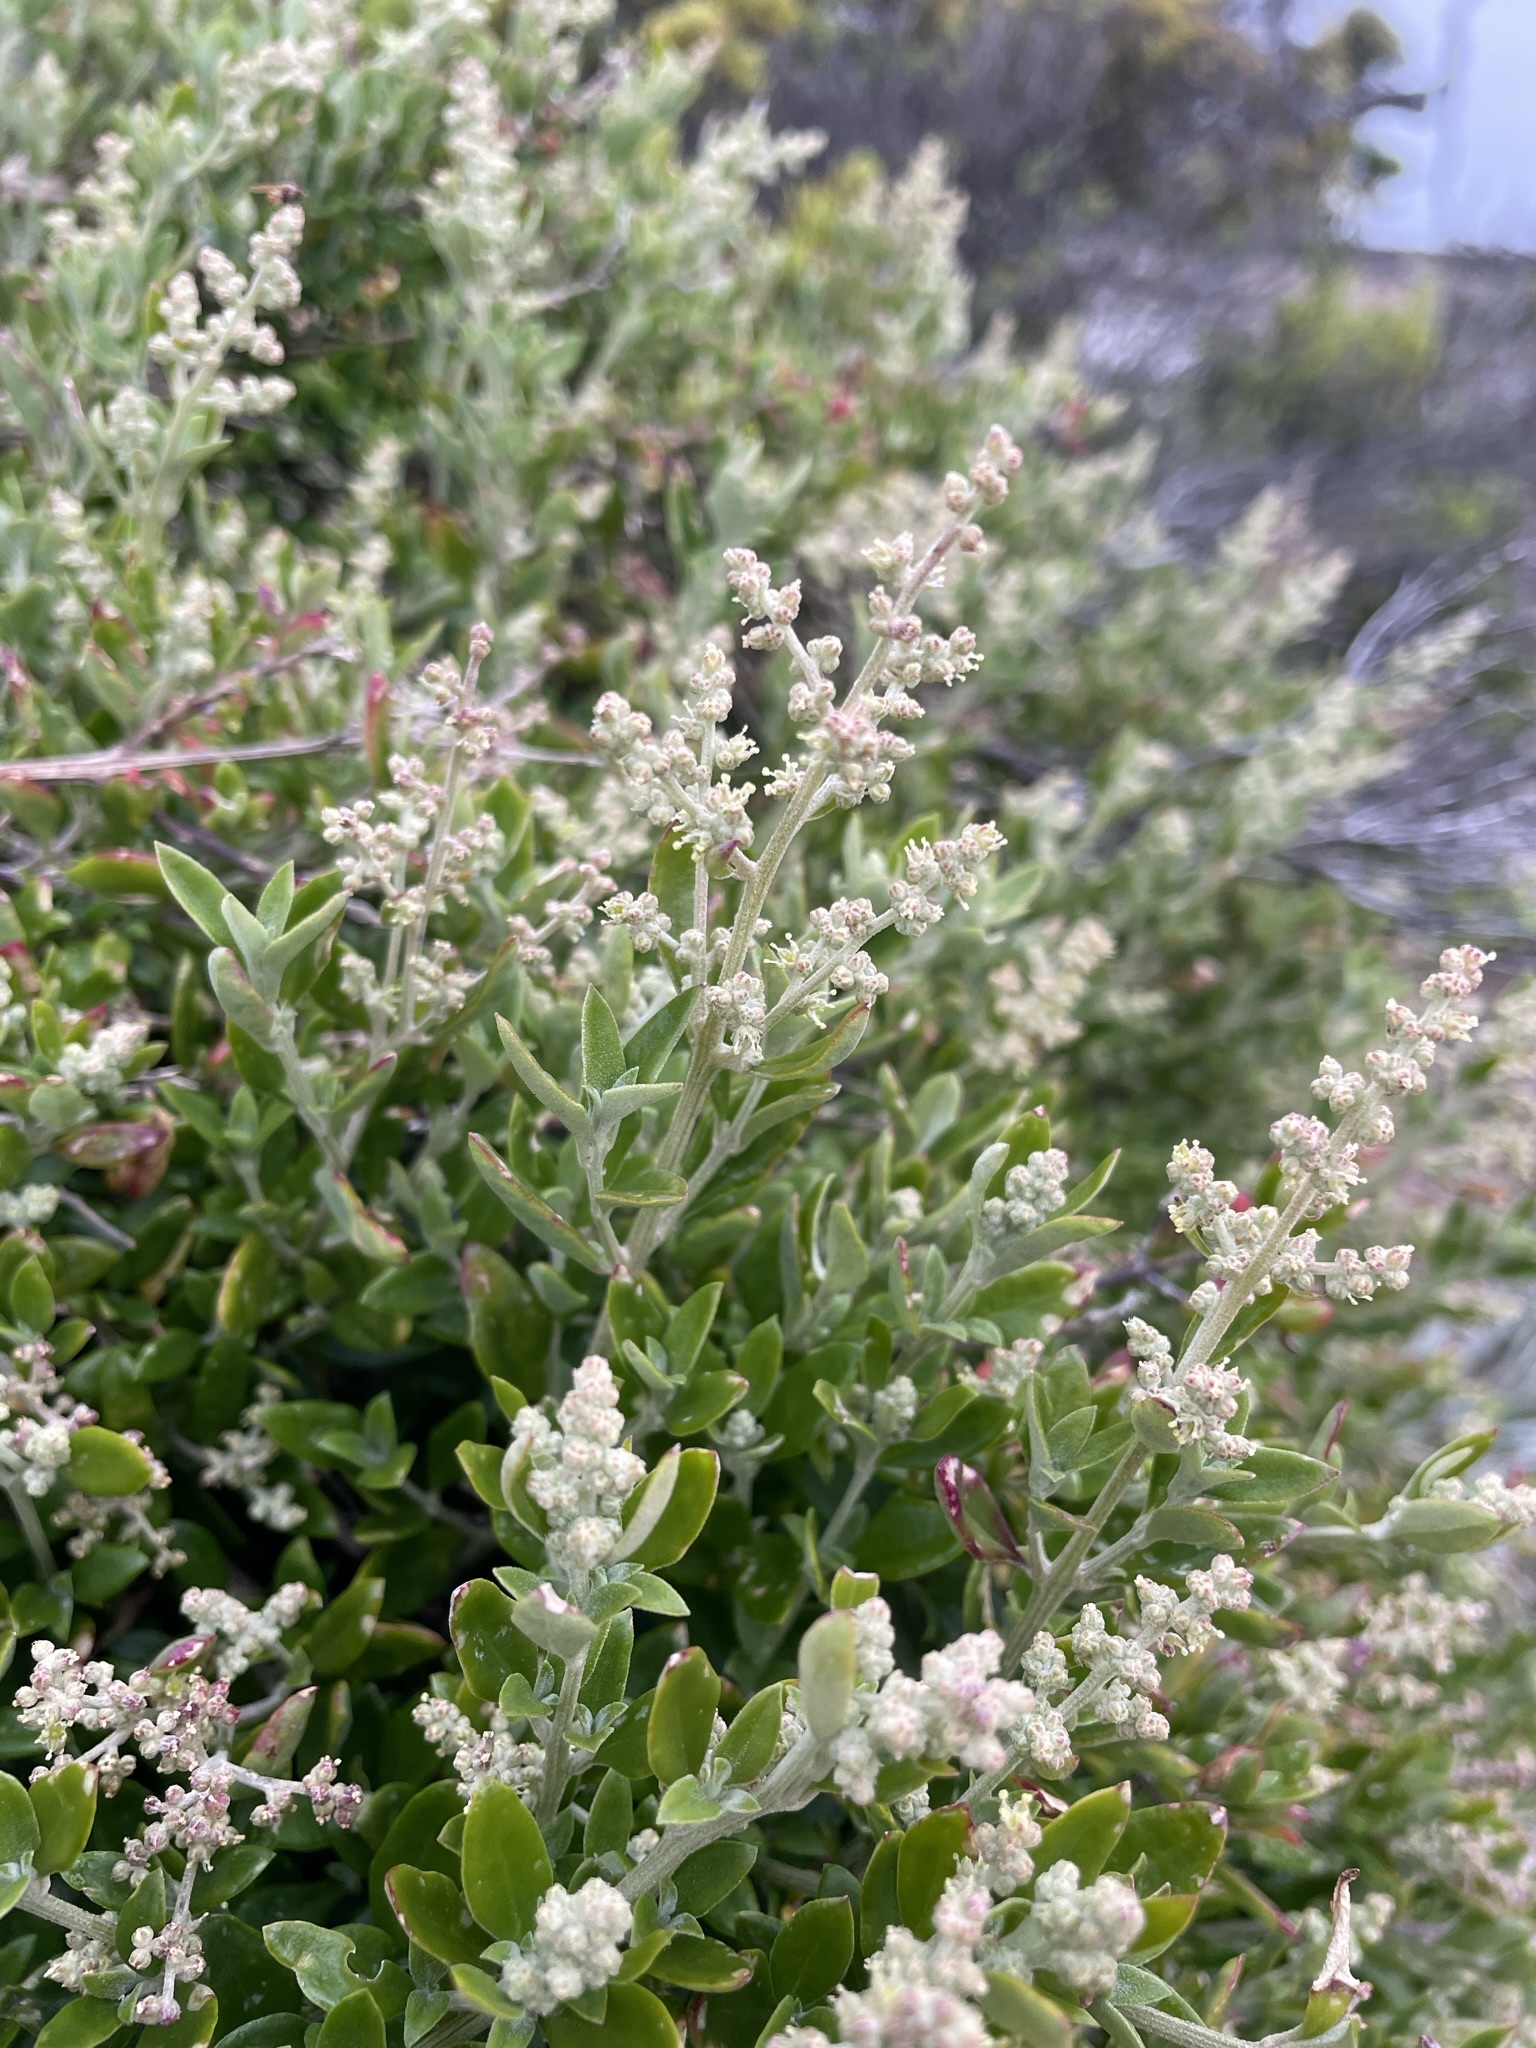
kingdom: Plantae
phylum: Tracheophyta
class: Magnoliopsida
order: Caryophyllales
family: Amaranthaceae
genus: Chenopodium
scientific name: Chenopodium candolleanum
